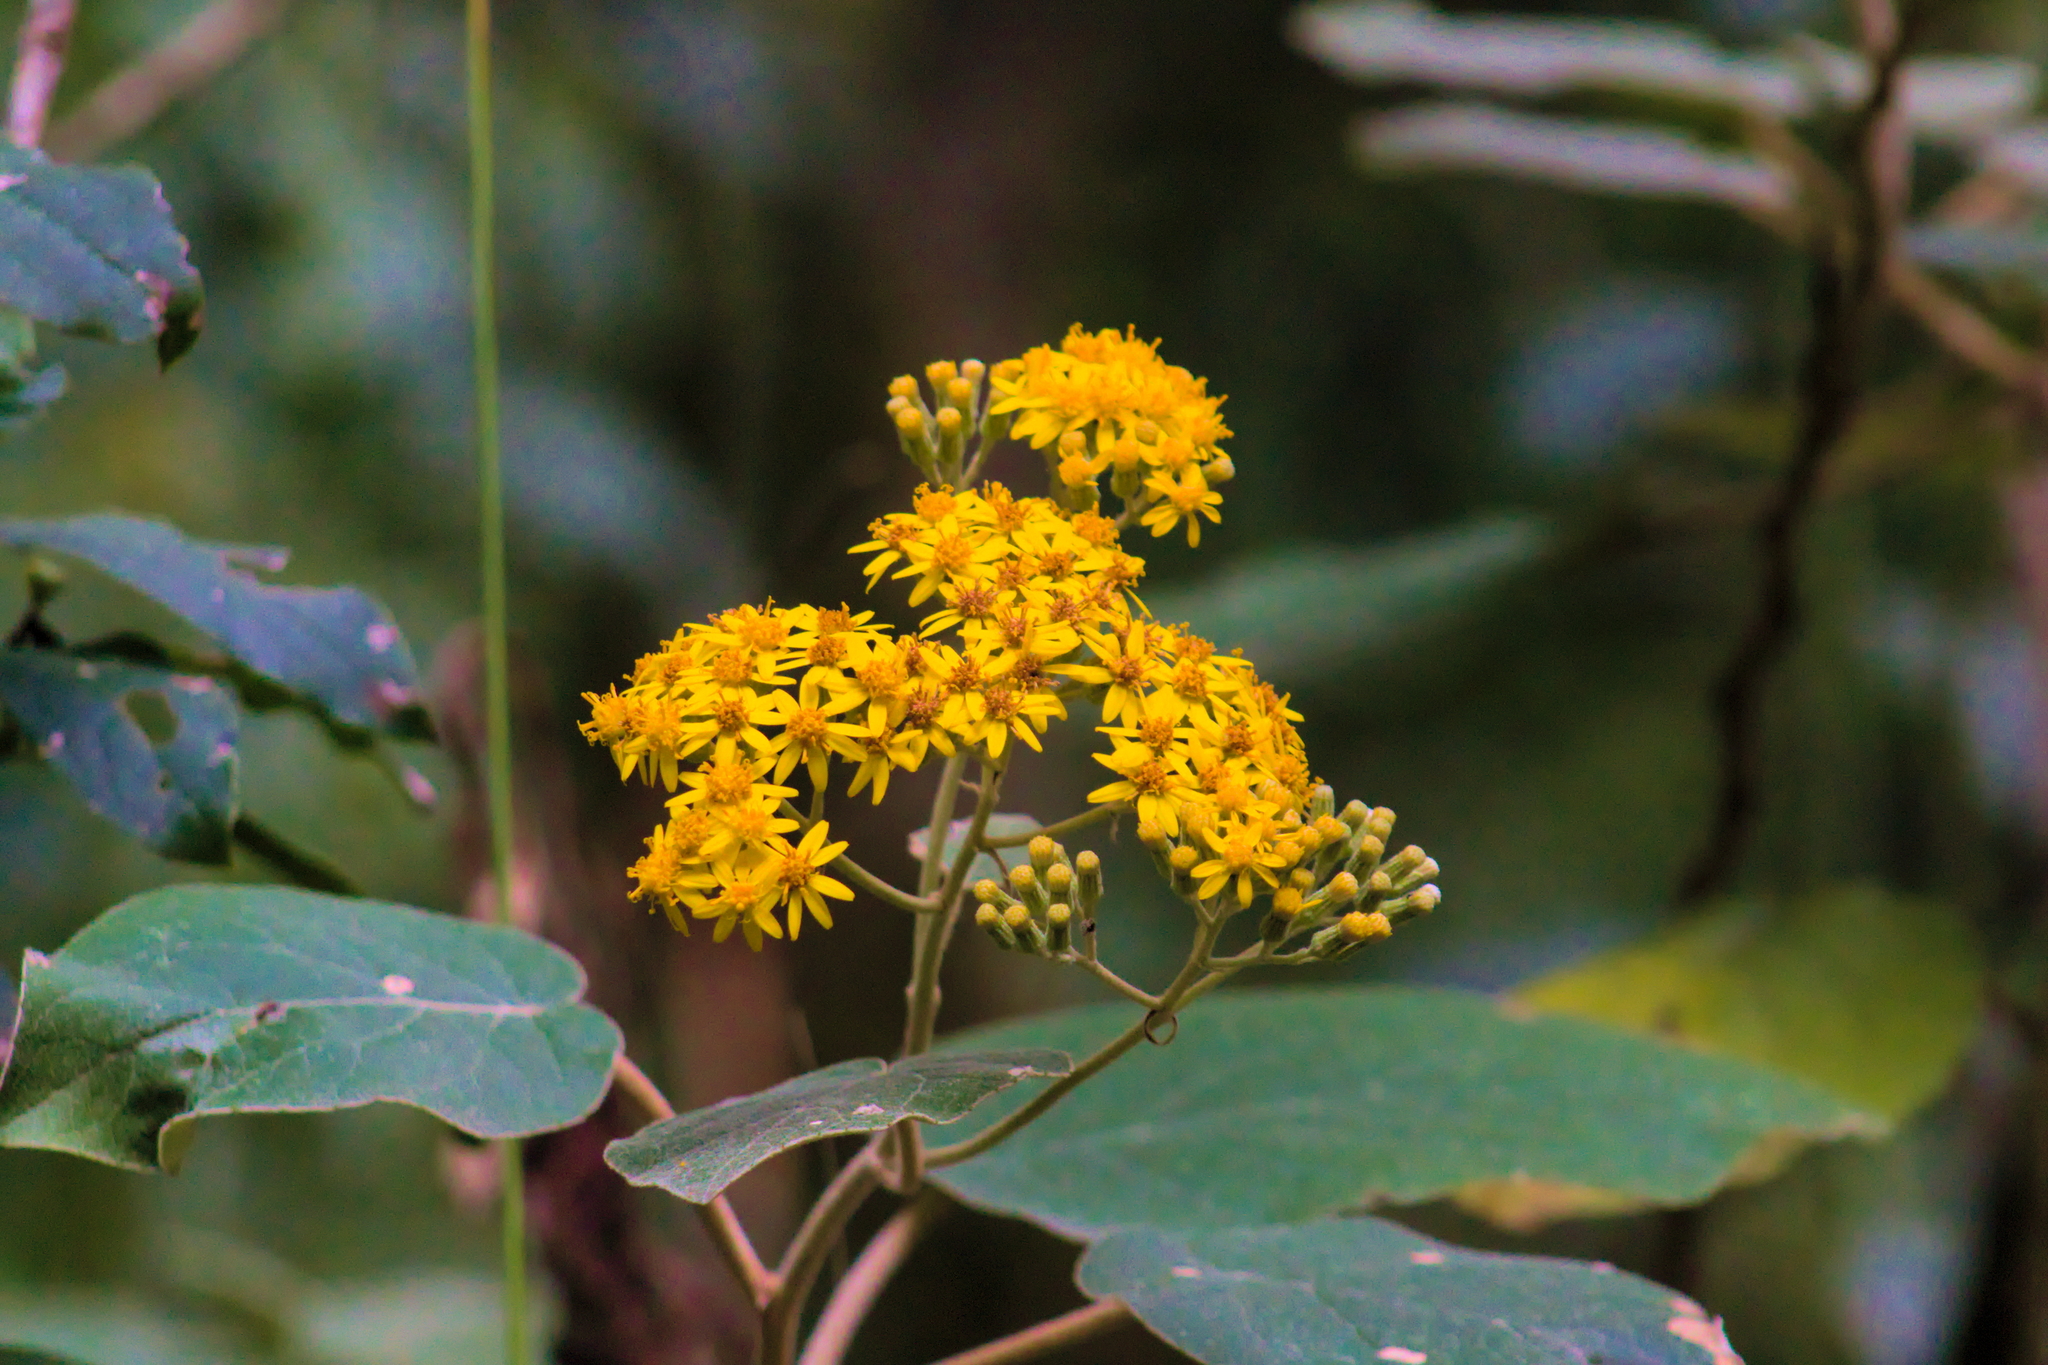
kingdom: Plantae
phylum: Tracheophyta
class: Magnoliopsida
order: Asterales
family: Asteraceae
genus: Roldana
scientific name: Roldana barba-johannis
